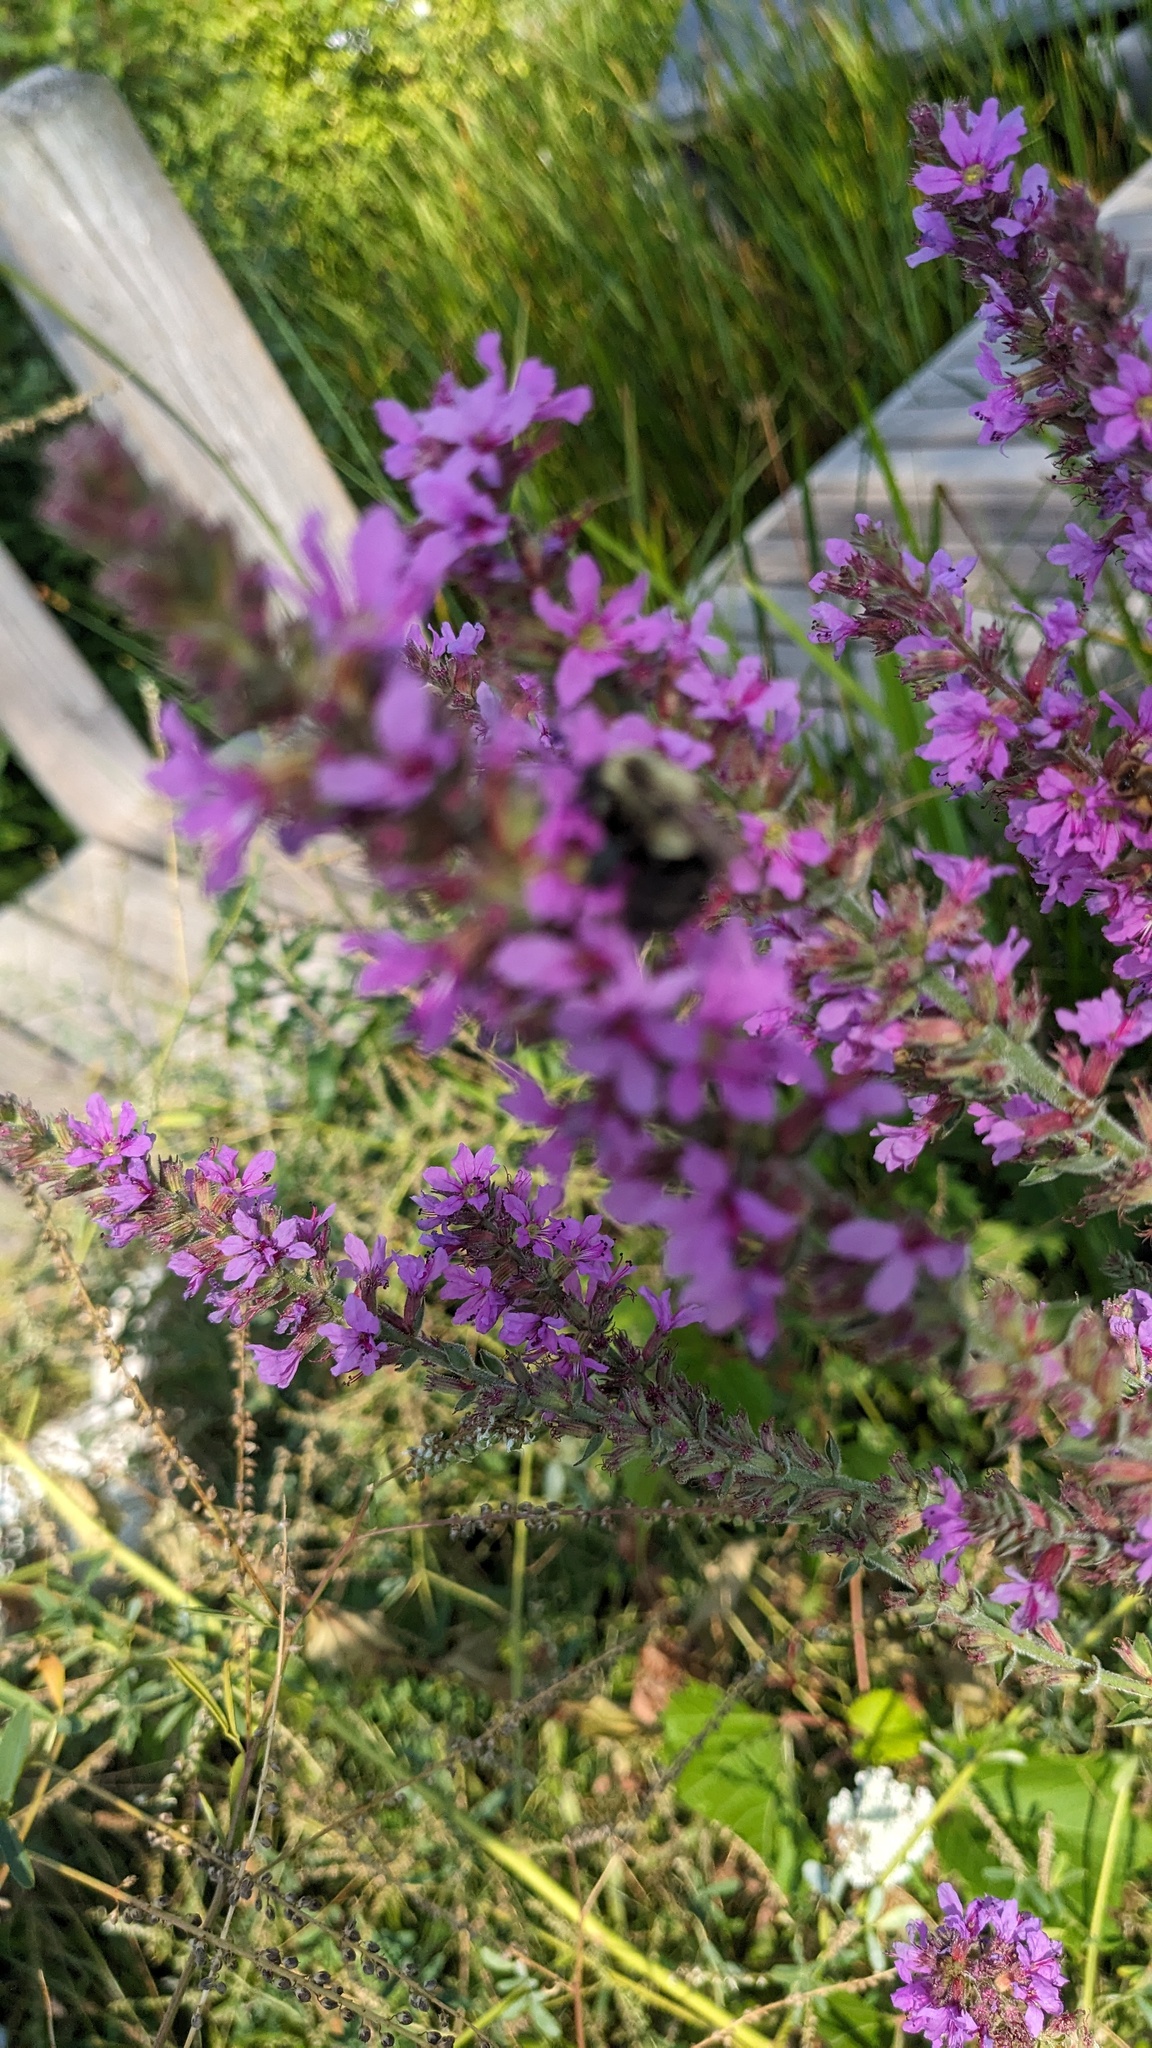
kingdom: Animalia
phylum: Arthropoda
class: Insecta
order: Hymenoptera
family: Apidae
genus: Bombus
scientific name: Bombus impatiens
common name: Common eastern bumble bee
